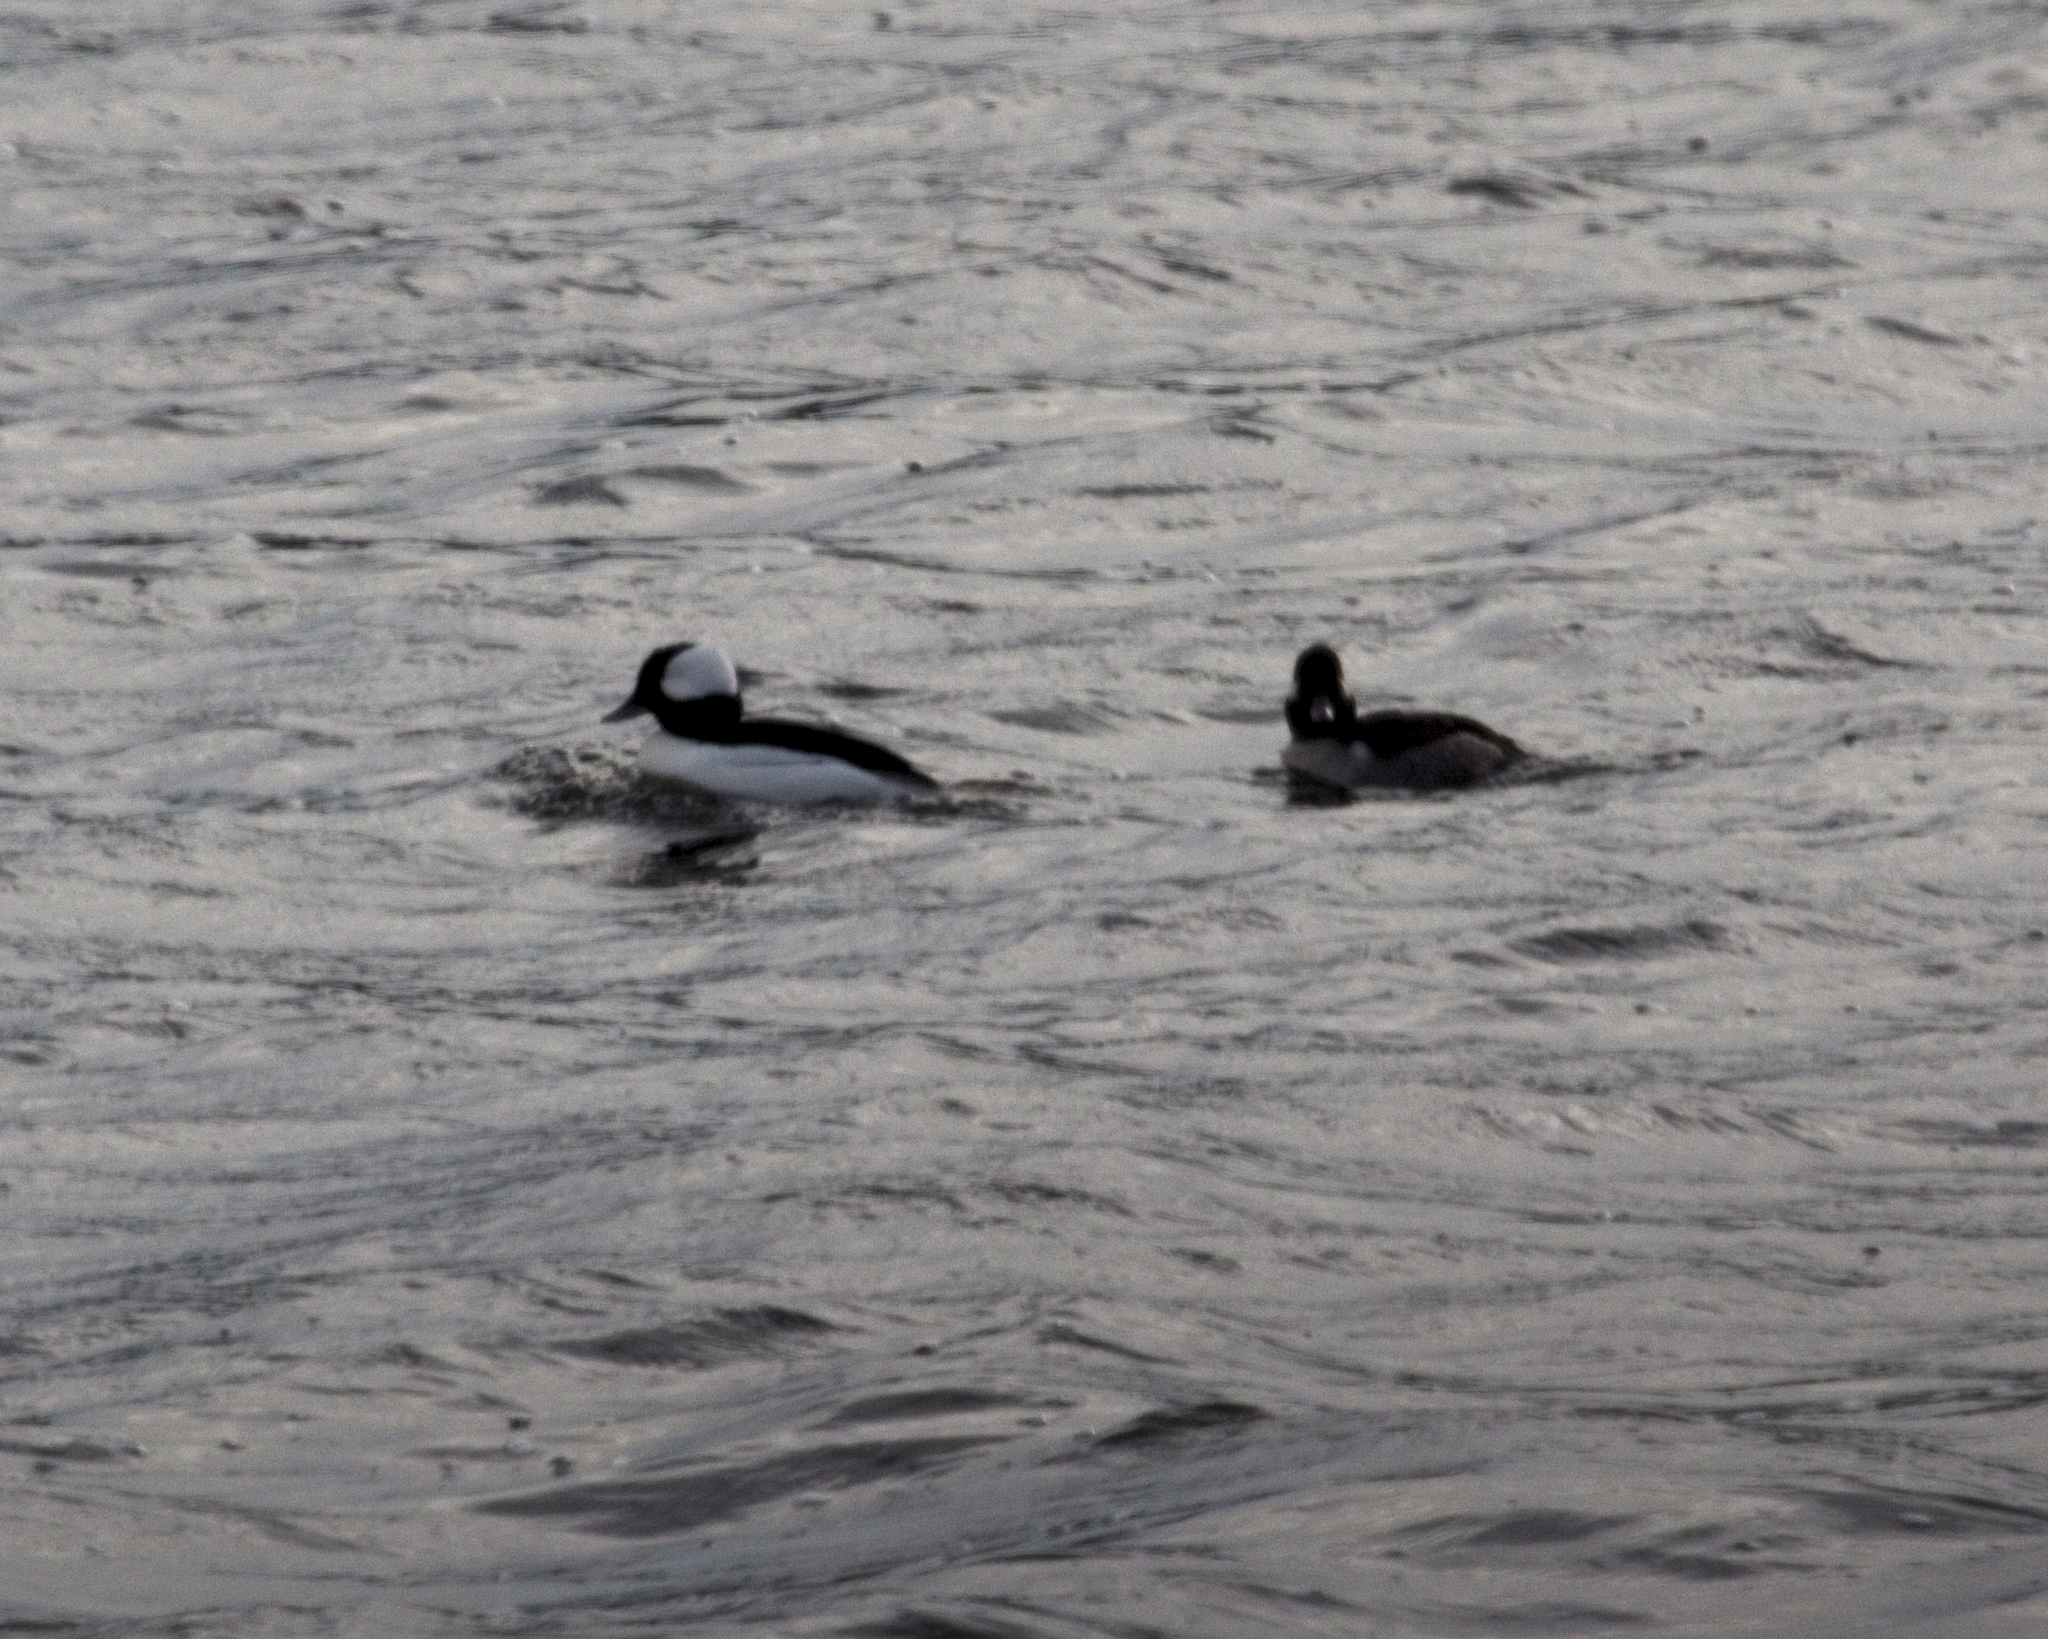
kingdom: Animalia
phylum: Chordata
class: Aves
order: Anseriformes
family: Anatidae
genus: Bucephala
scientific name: Bucephala albeola
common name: Bufflehead
